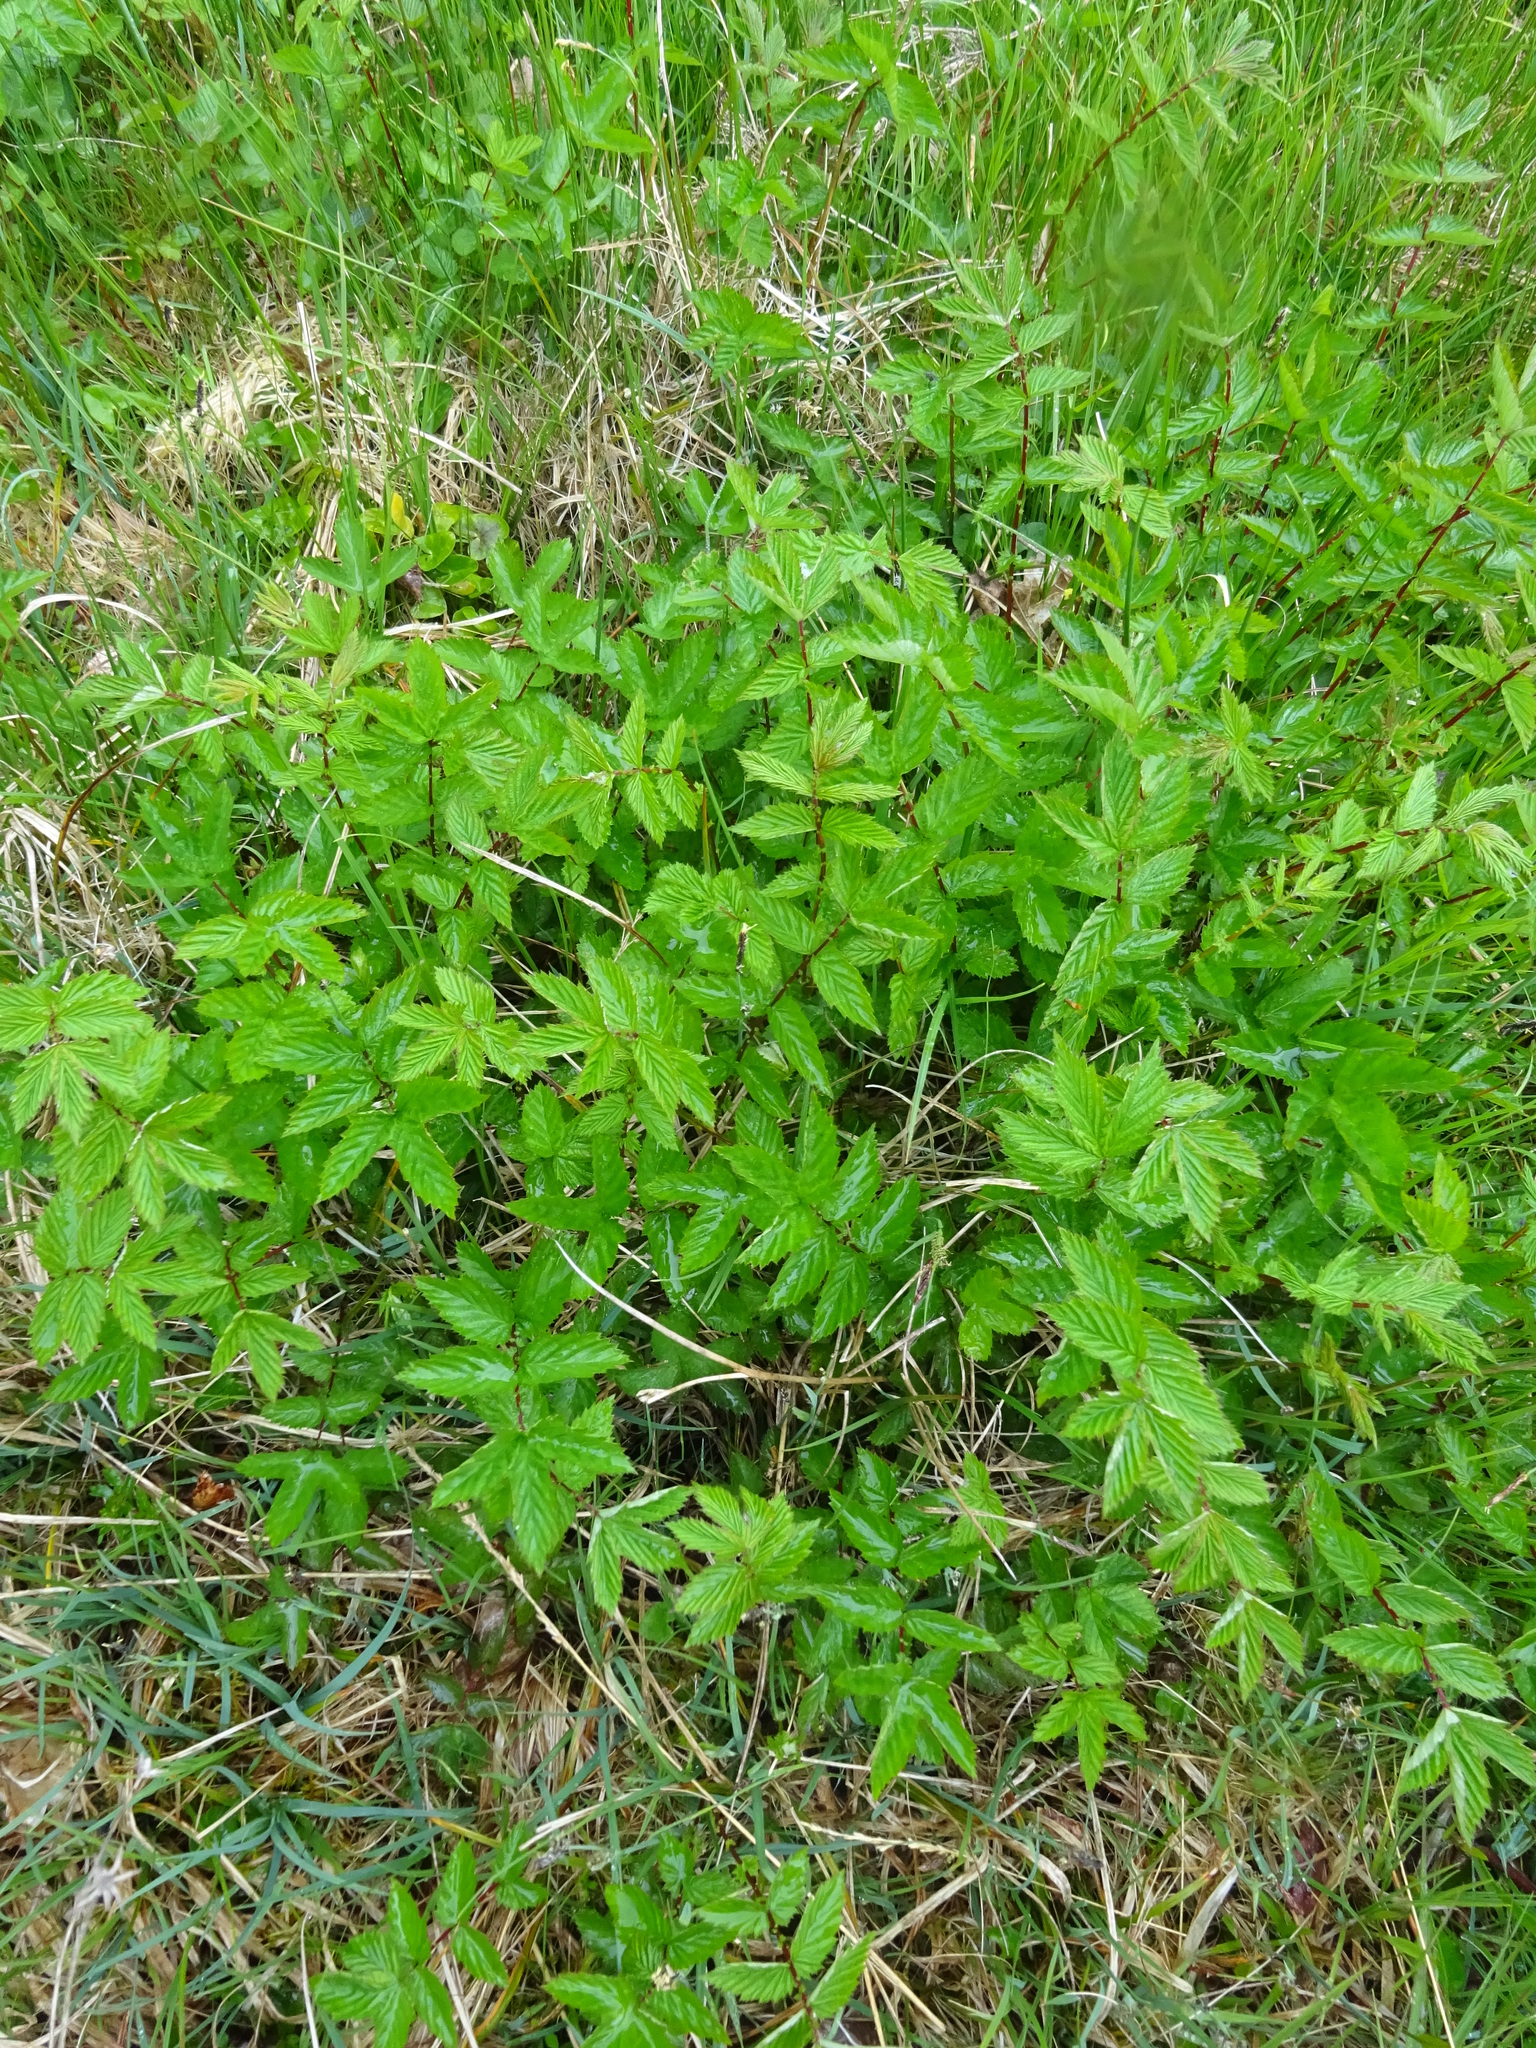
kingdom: Plantae
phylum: Tracheophyta
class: Magnoliopsida
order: Rosales
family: Rosaceae
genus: Filipendula
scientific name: Filipendula ulmaria
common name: Meadowsweet
